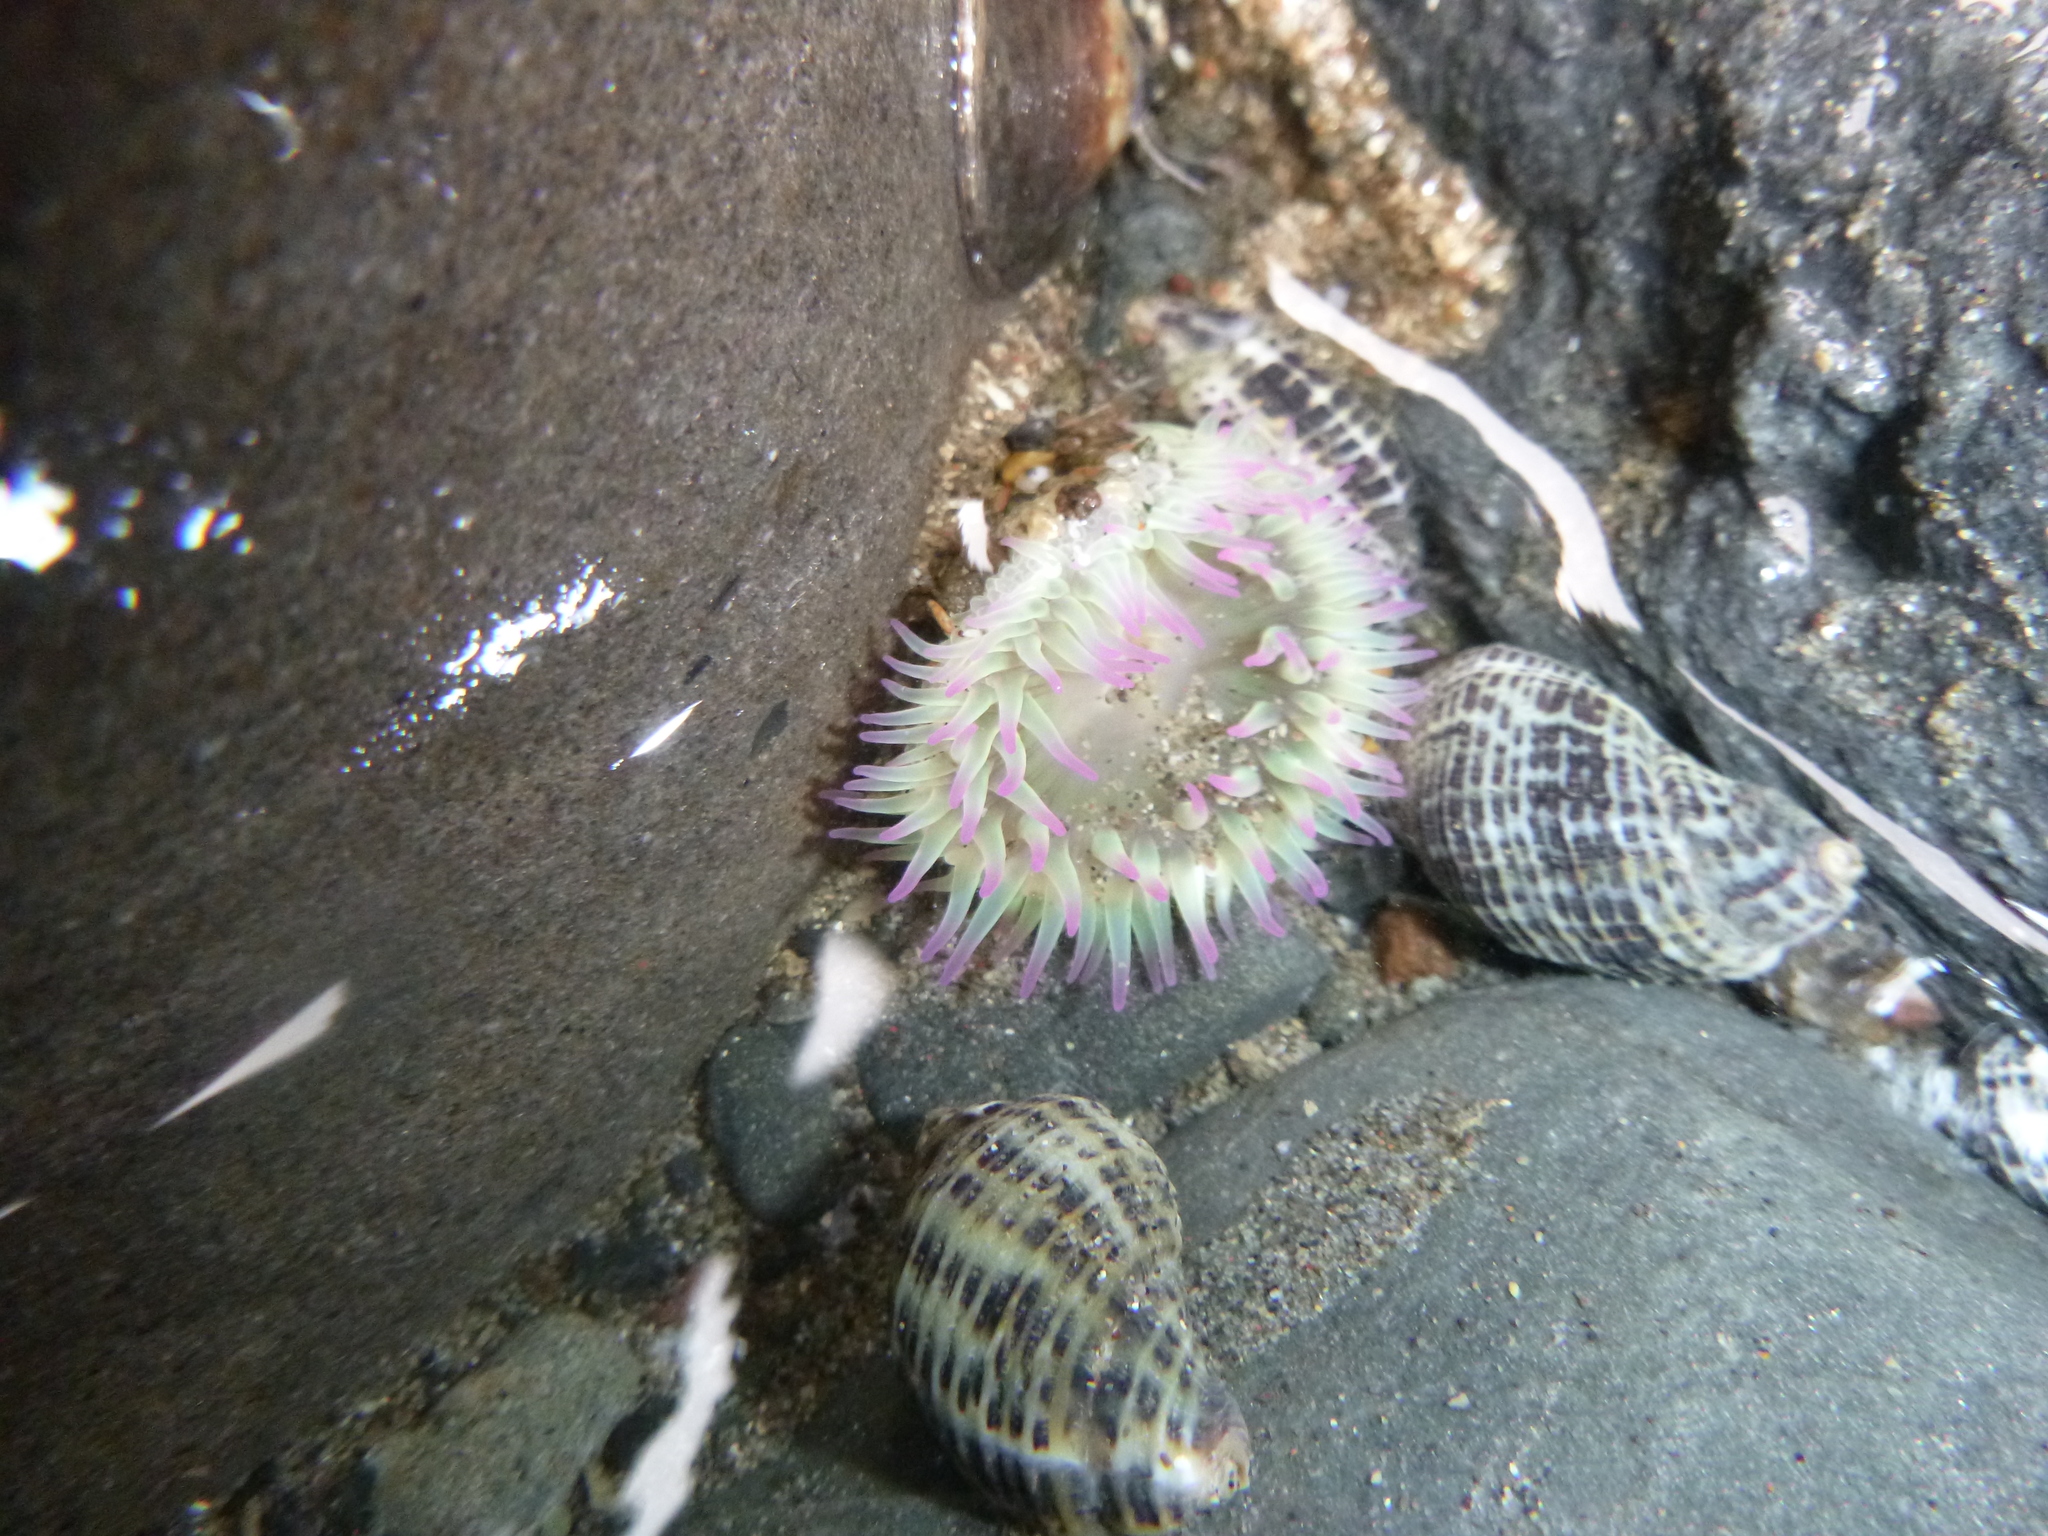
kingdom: Animalia
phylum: Cnidaria
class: Anthozoa
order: Actiniaria
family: Actiniidae
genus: Anthopleura
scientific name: Anthopleura elegantissima
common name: Clonal anemone
